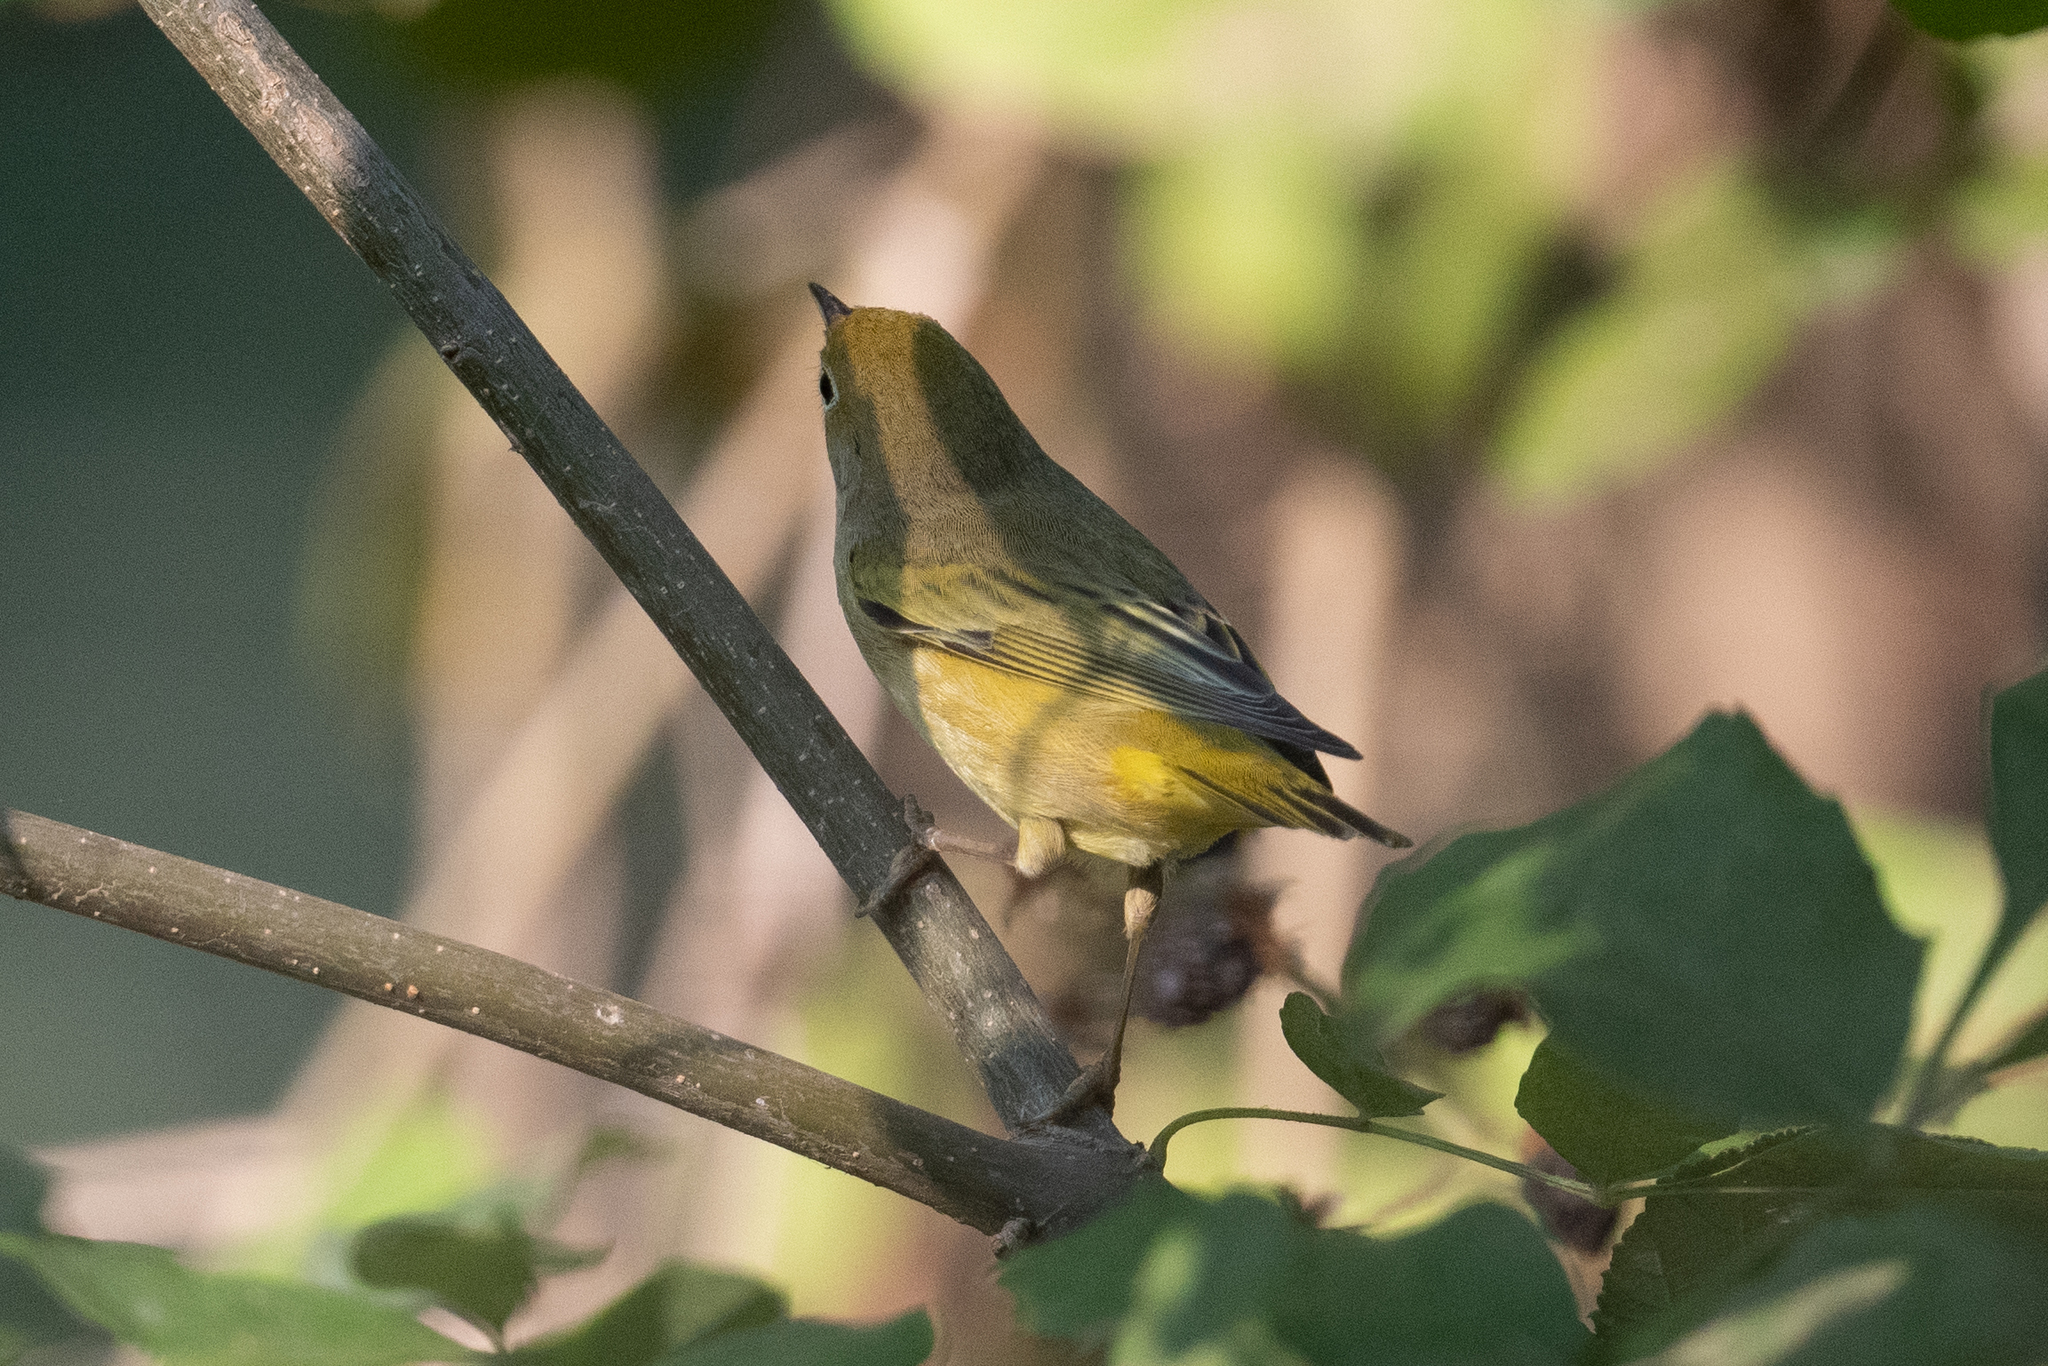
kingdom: Animalia
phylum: Chordata
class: Aves
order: Passeriformes
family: Parulidae
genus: Setophaga
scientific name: Setophaga petechia
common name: Yellow warbler
